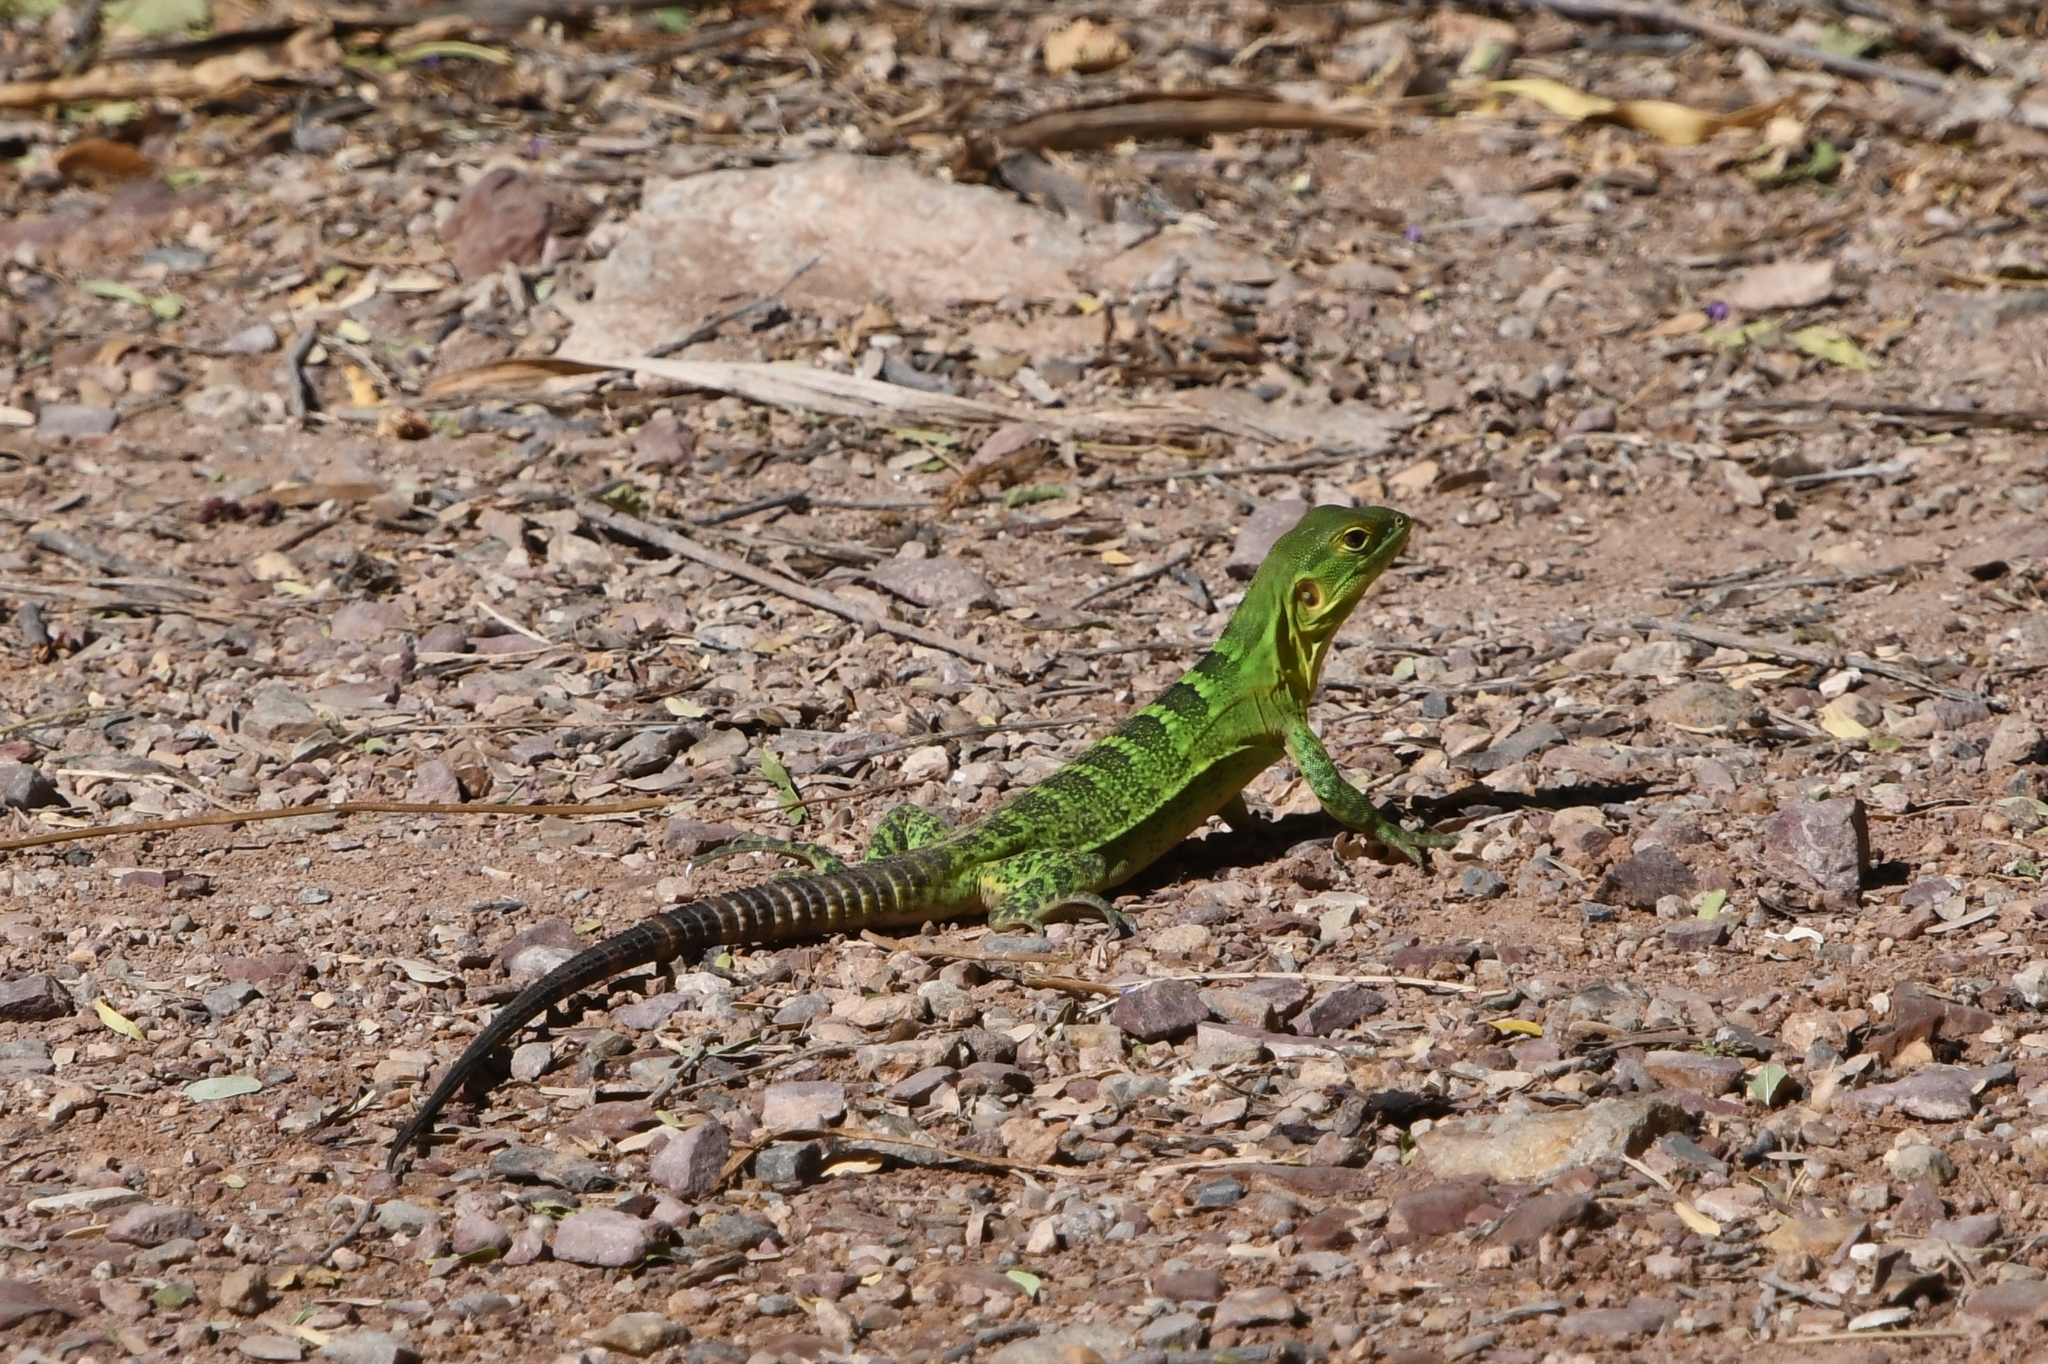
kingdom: Animalia
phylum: Chordata
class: Squamata
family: Iguanidae
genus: Ctenosaura
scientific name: Ctenosaura
